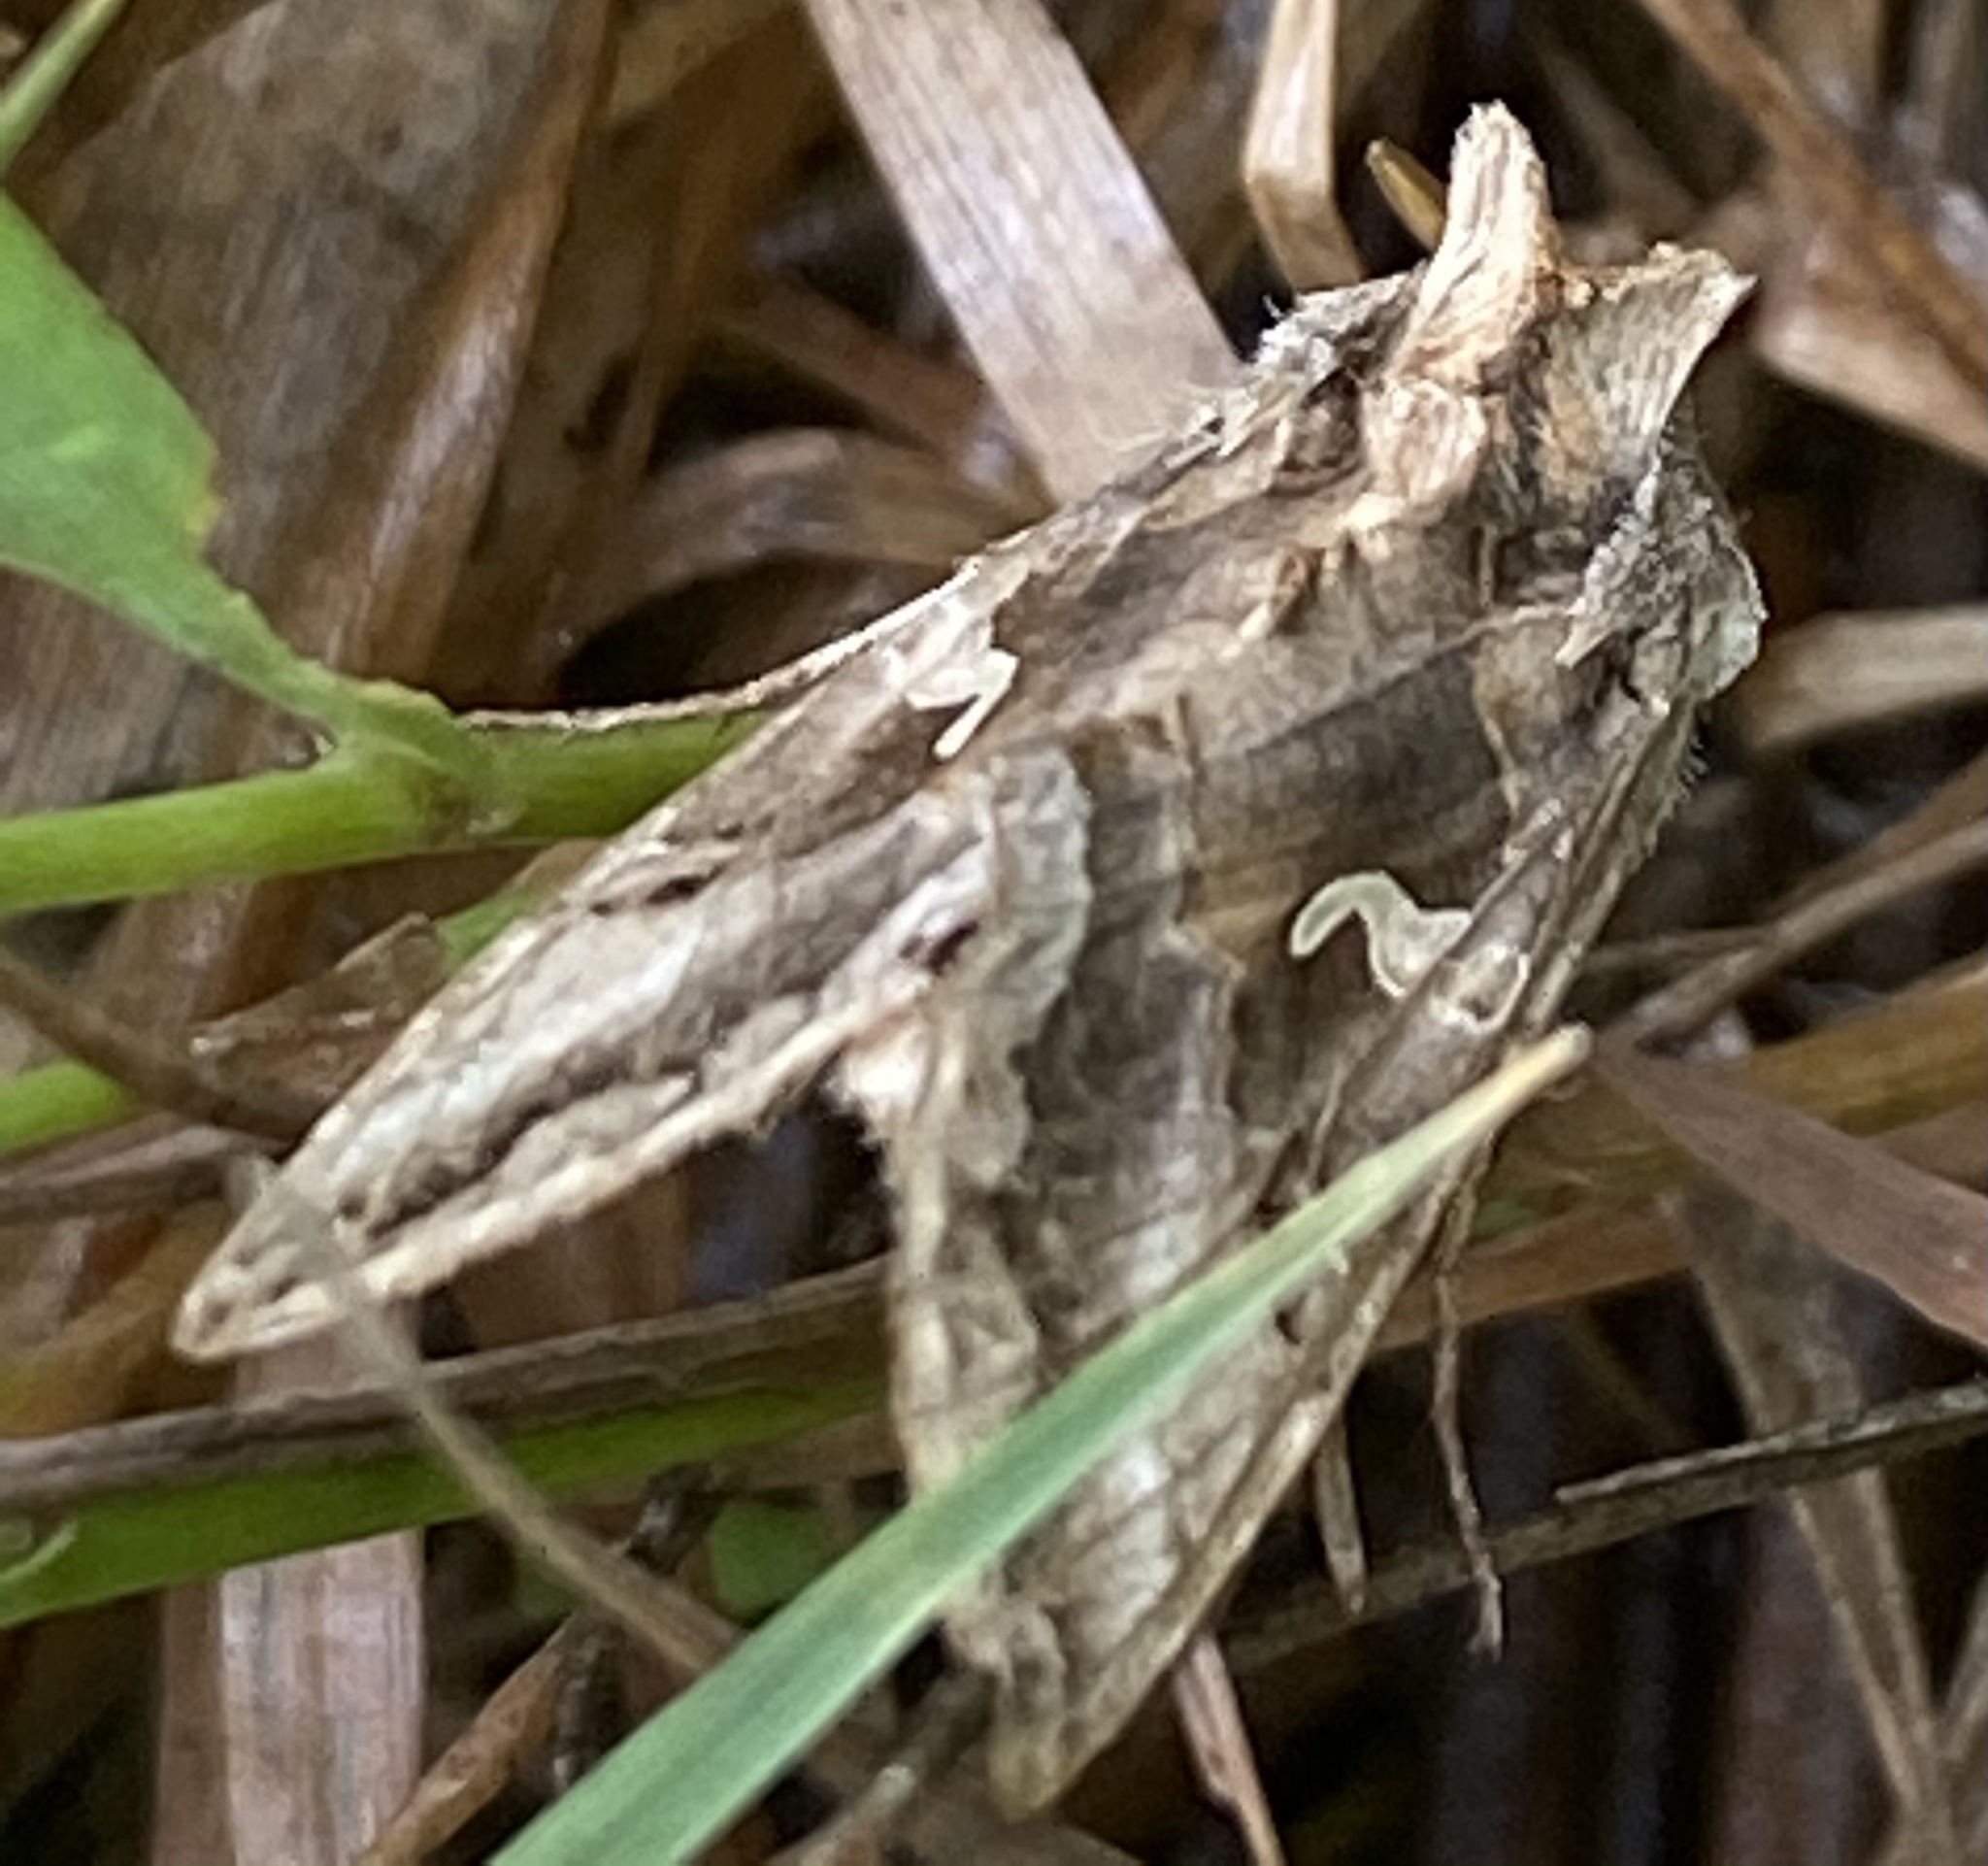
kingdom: Animalia
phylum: Arthropoda
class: Insecta
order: Lepidoptera
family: Noctuidae
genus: Autographa
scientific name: Autographa gamma
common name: Silver y
